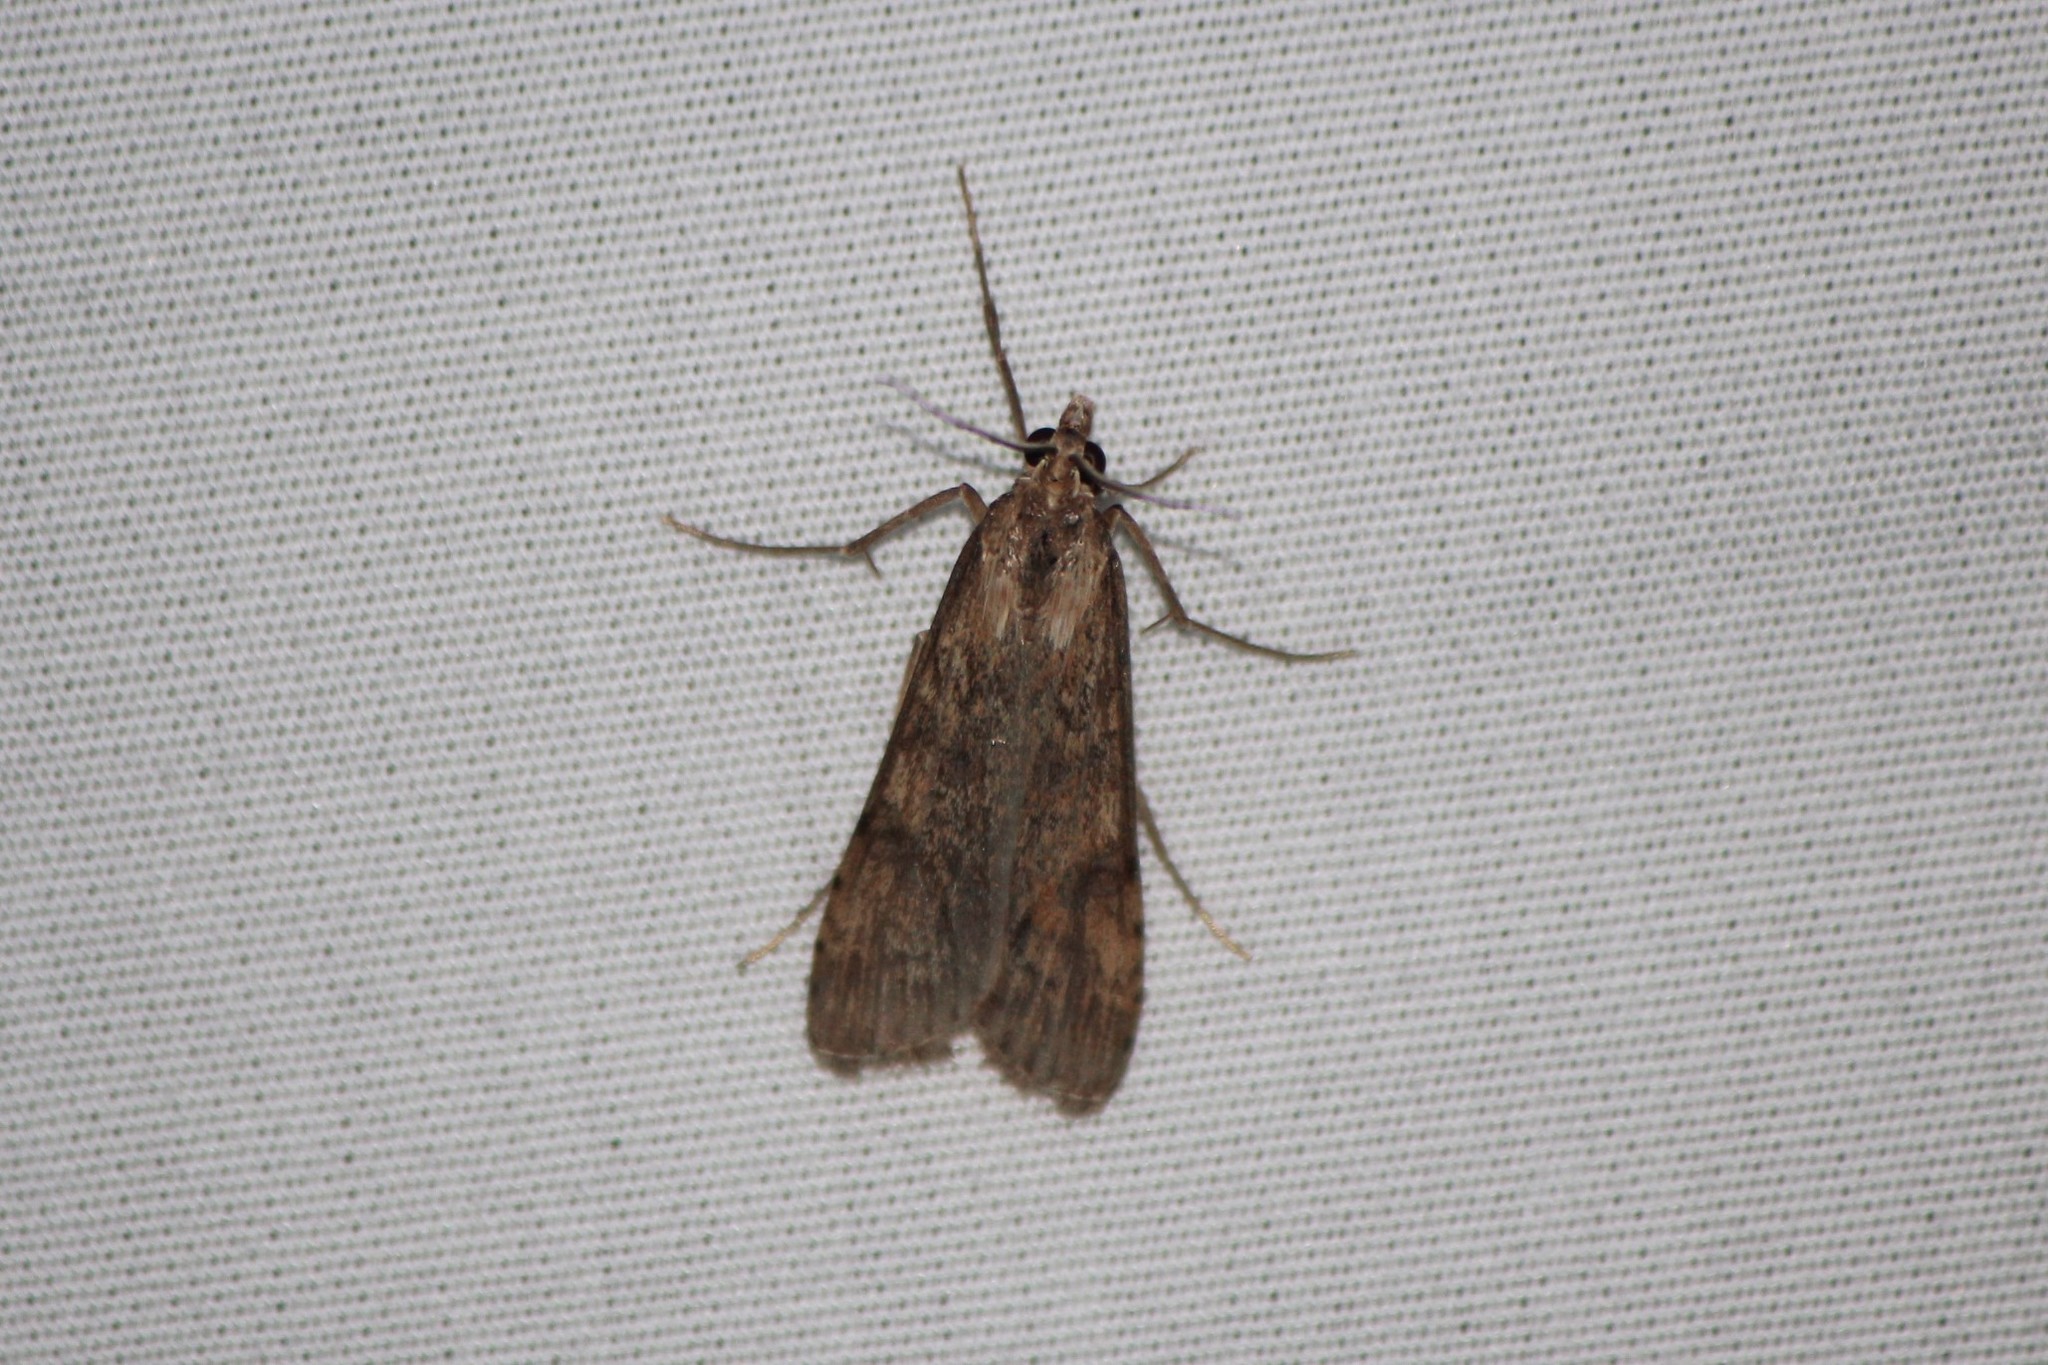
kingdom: Animalia
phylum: Arthropoda
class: Insecta
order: Lepidoptera
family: Crambidae
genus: Nomophila
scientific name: Nomophila nearctica
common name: American rush veneer
